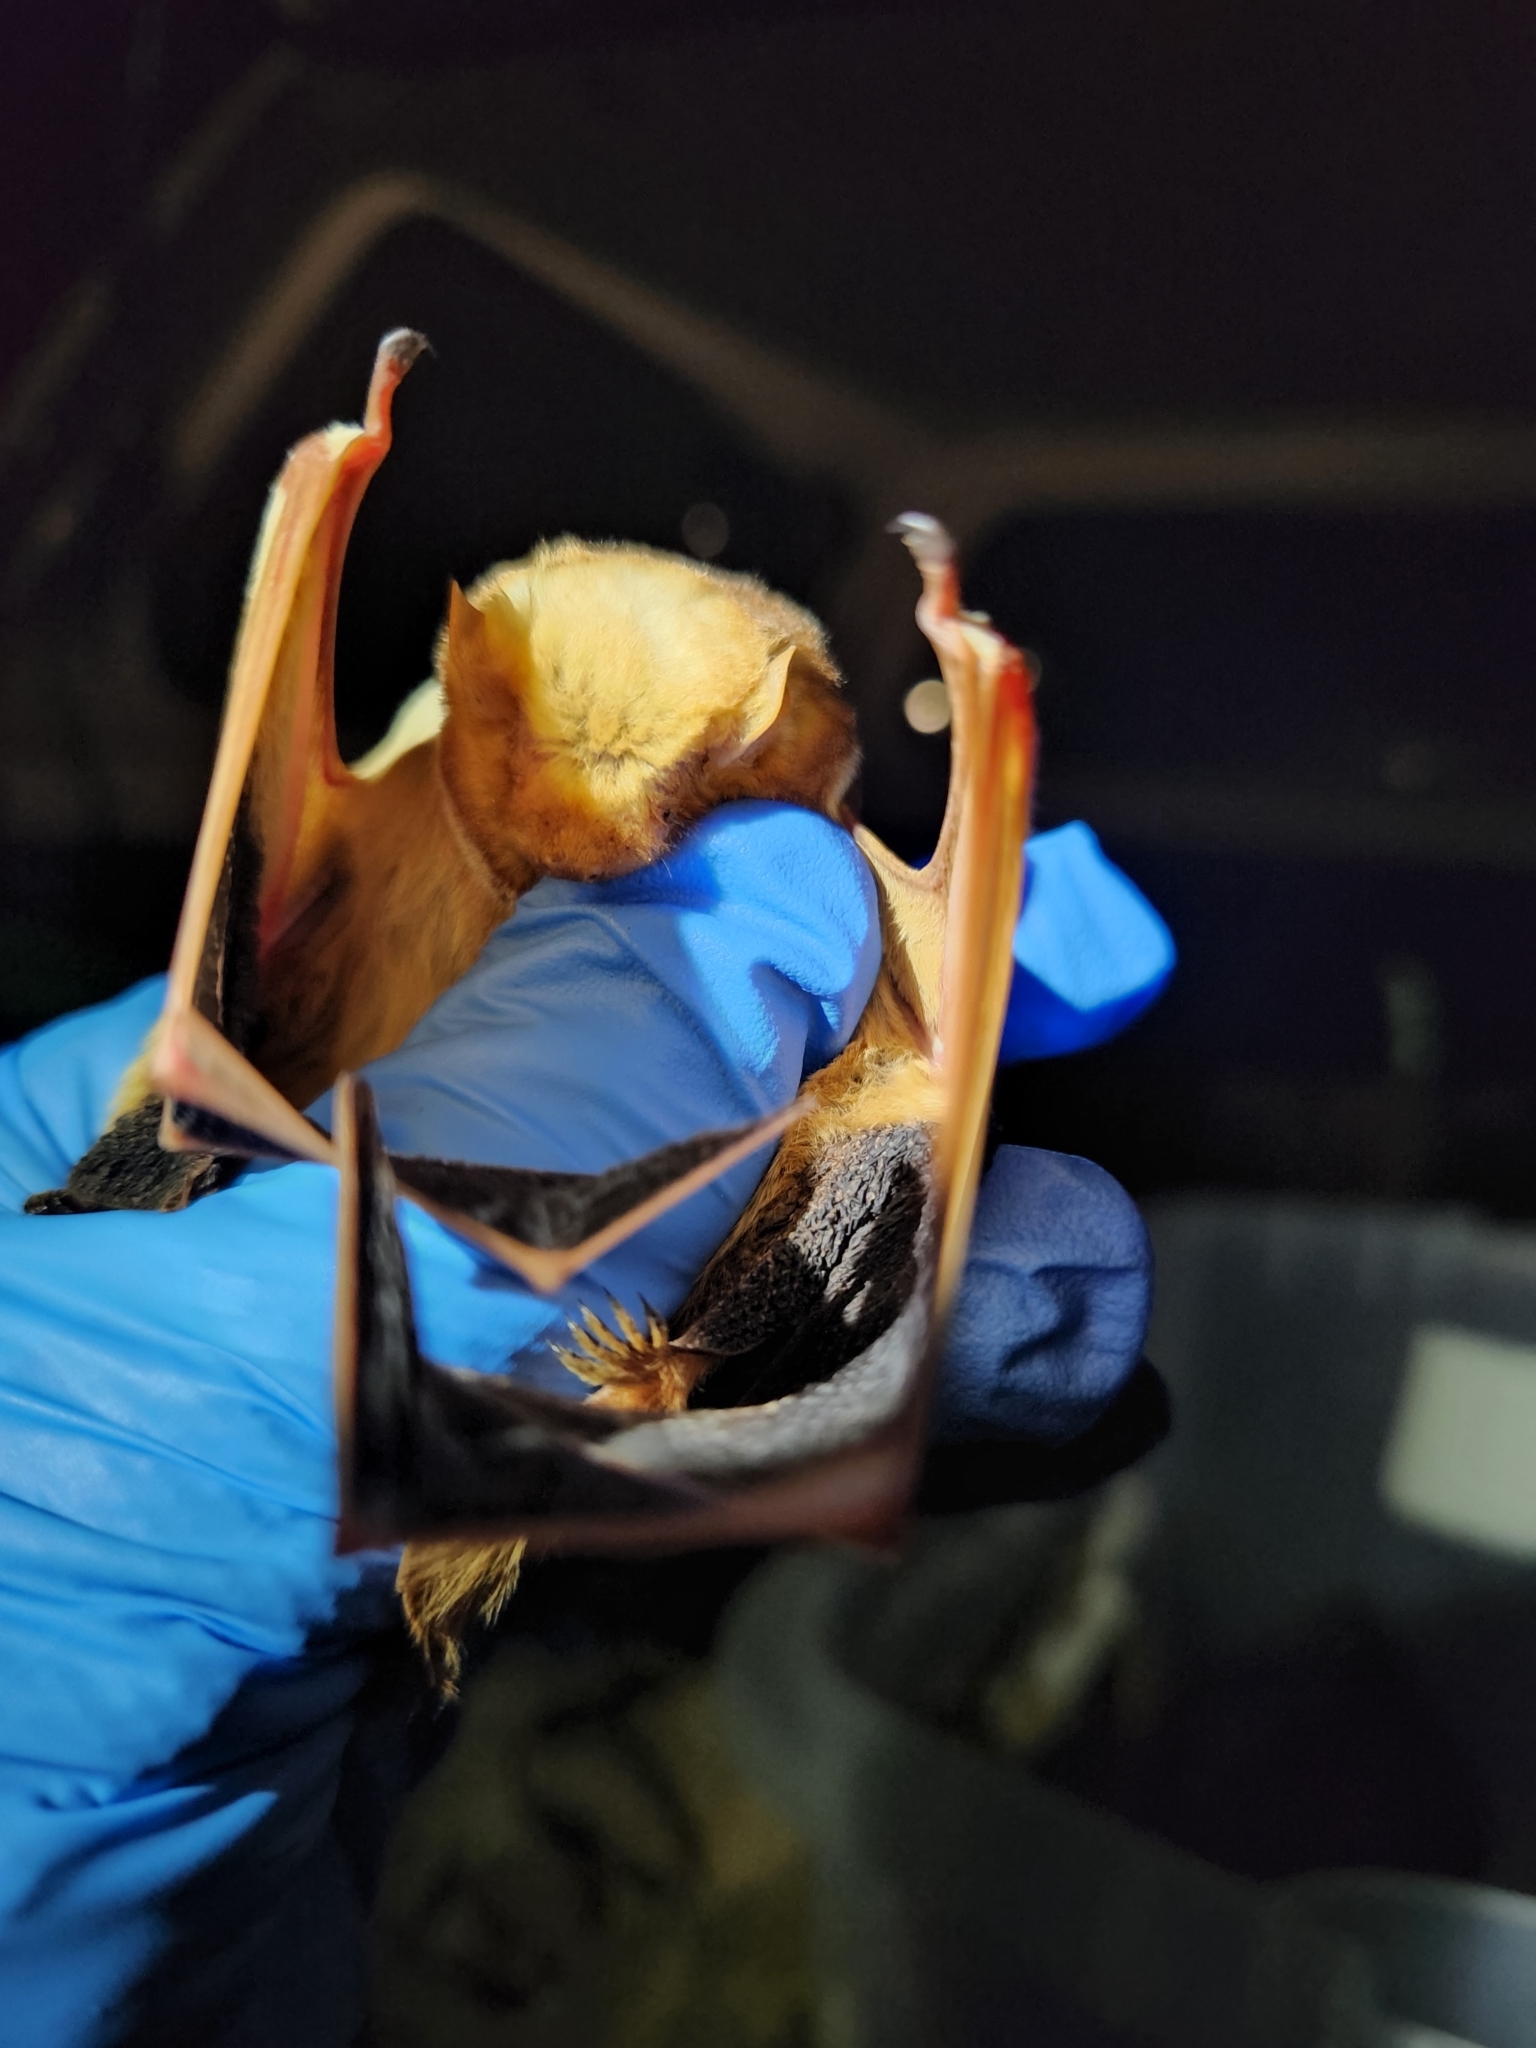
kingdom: Animalia
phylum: Chordata
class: Mammalia
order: Chiroptera
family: Vespertilionidae
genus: Lasiurus
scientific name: Lasiurus borealis
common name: Eastern red bat
